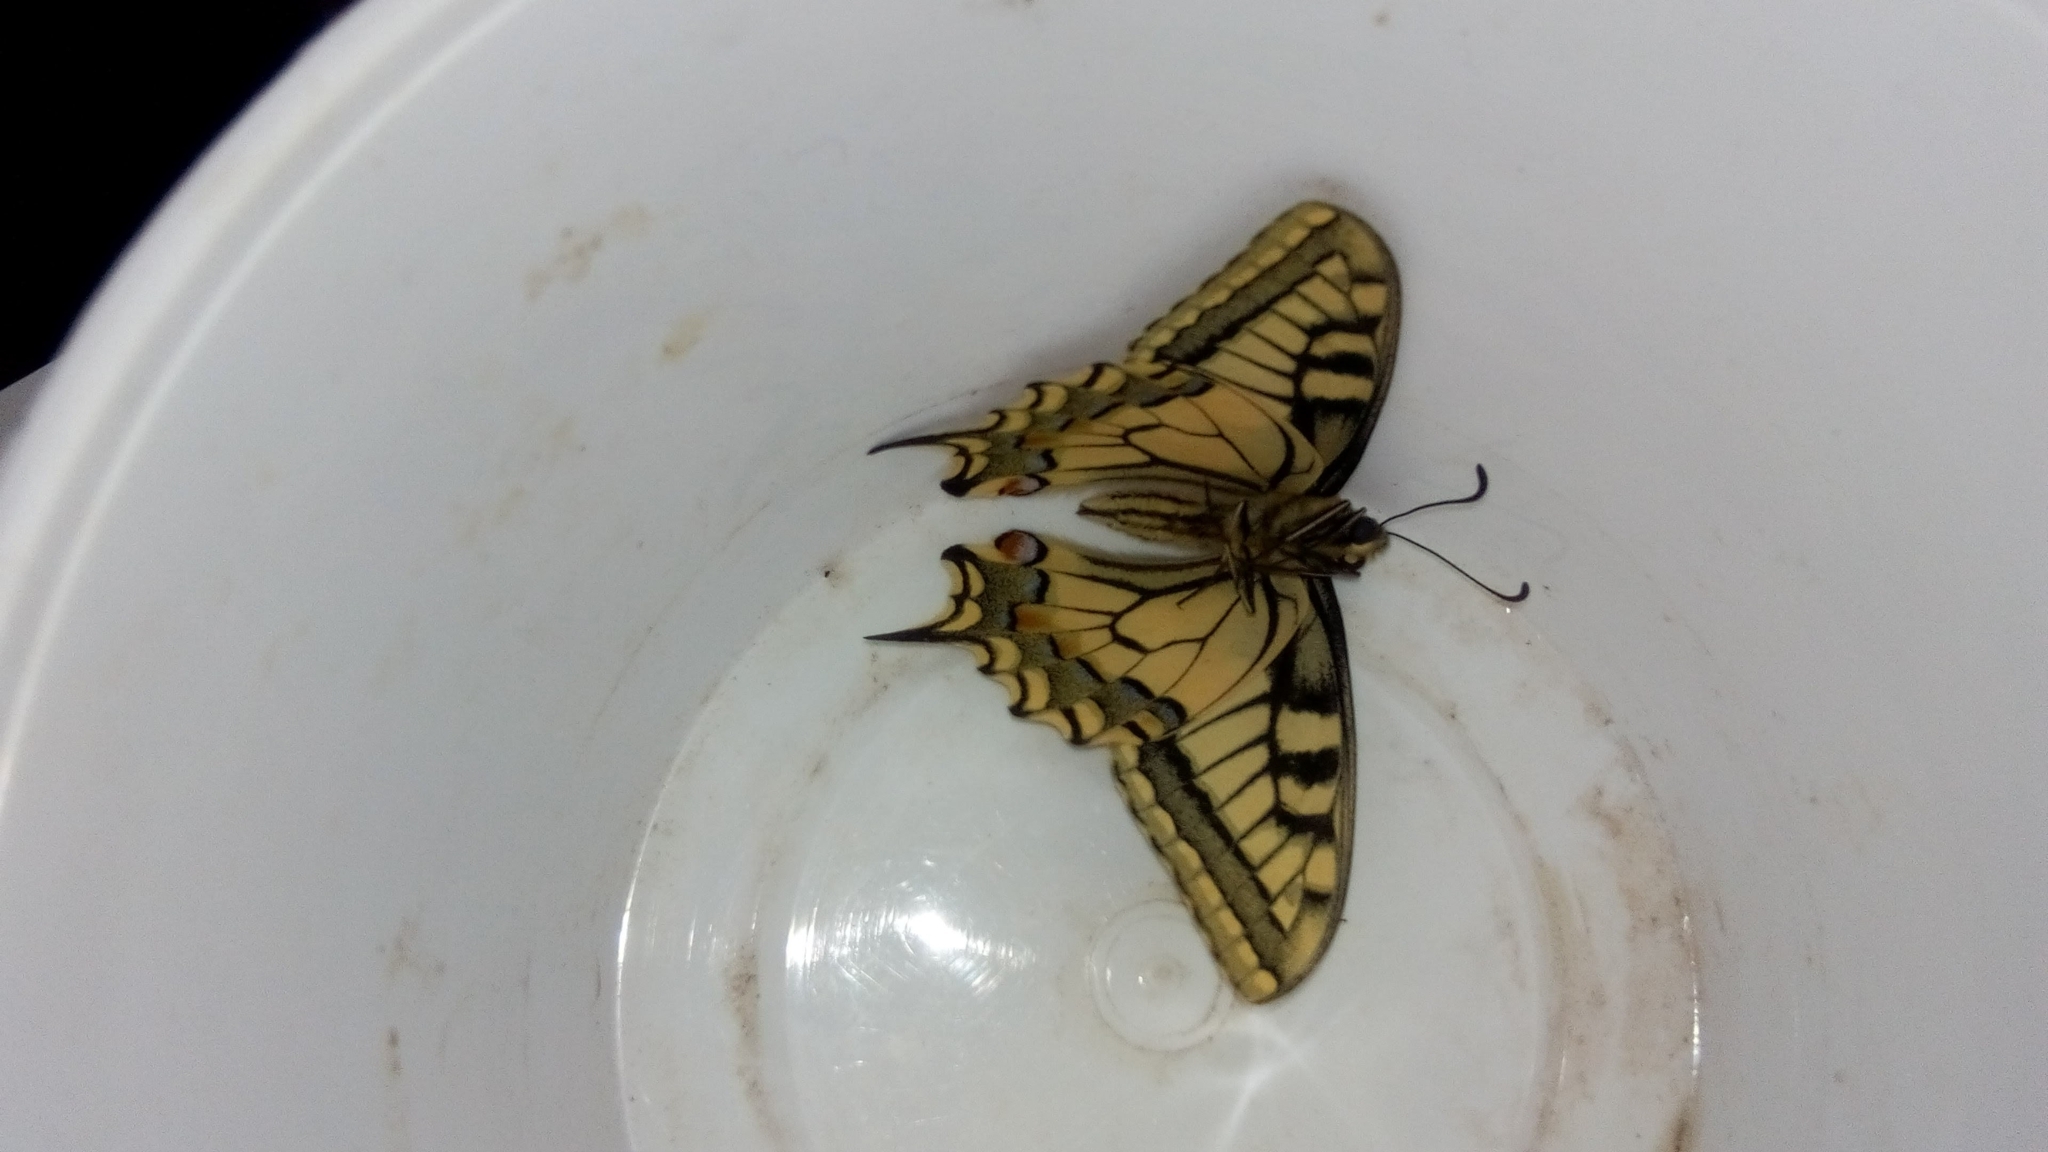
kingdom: Animalia
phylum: Arthropoda
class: Insecta
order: Lepidoptera
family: Papilionidae
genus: Papilio
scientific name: Papilio machaon
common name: Swallowtail
